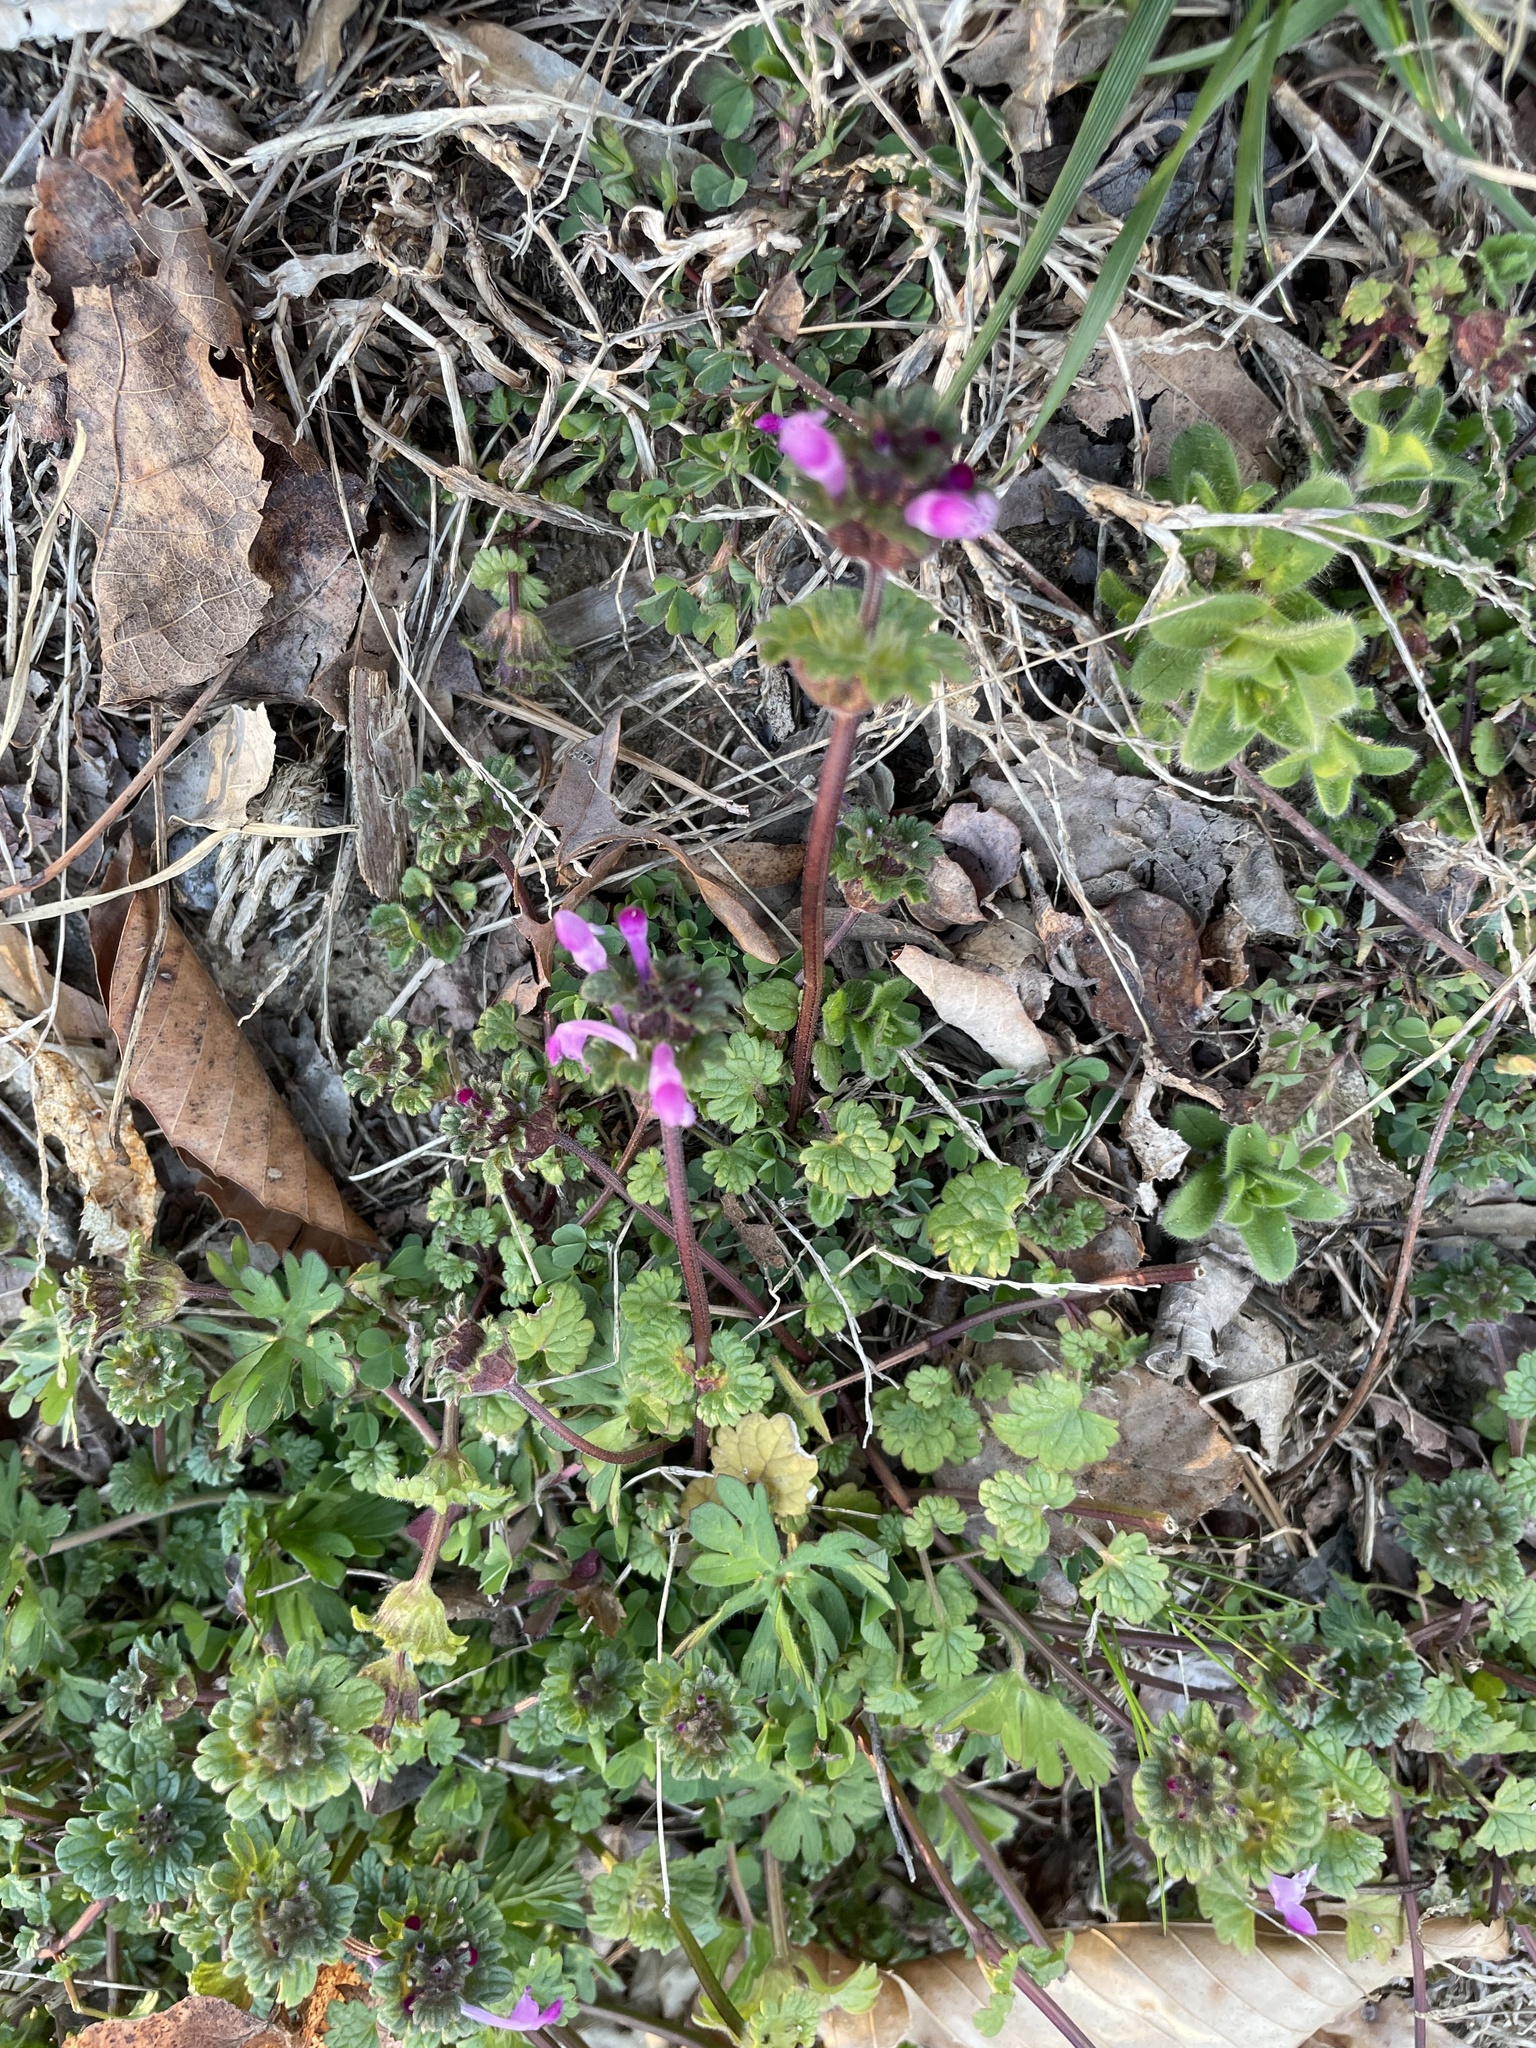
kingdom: Plantae
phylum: Tracheophyta
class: Magnoliopsida
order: Lamiales
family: Lamiaceae
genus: Lamium
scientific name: Lamium amplexicaule
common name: Henbit dead-nettle
